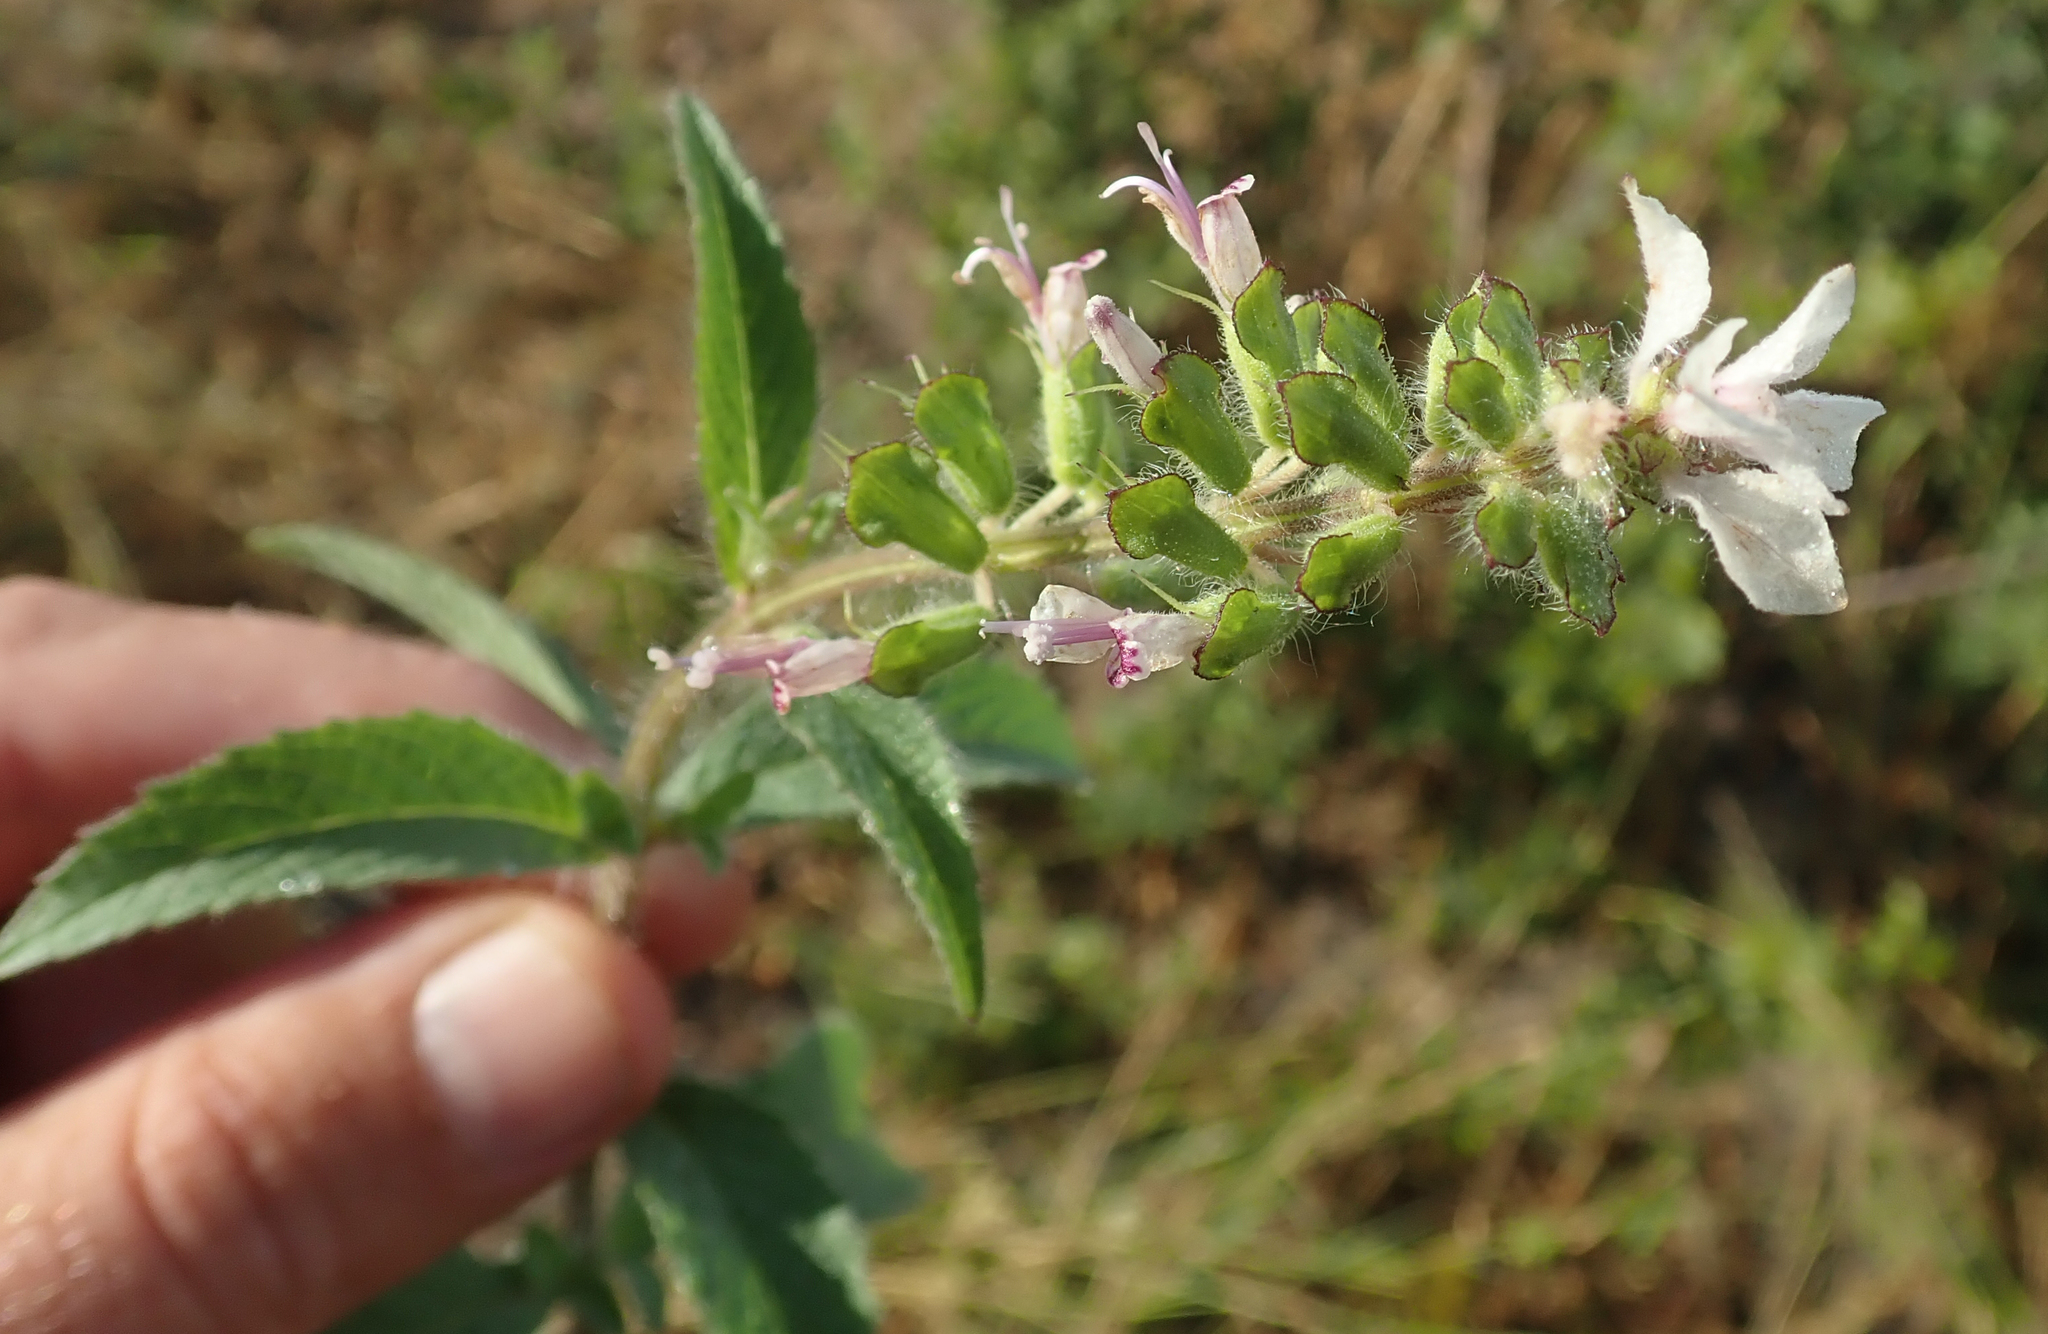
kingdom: Plantae
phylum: Tracheophyta
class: Magnoliopsida
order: Lamiales
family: Lamiaceae
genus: Syncolostemon
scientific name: Syncolostemon bracteosus
